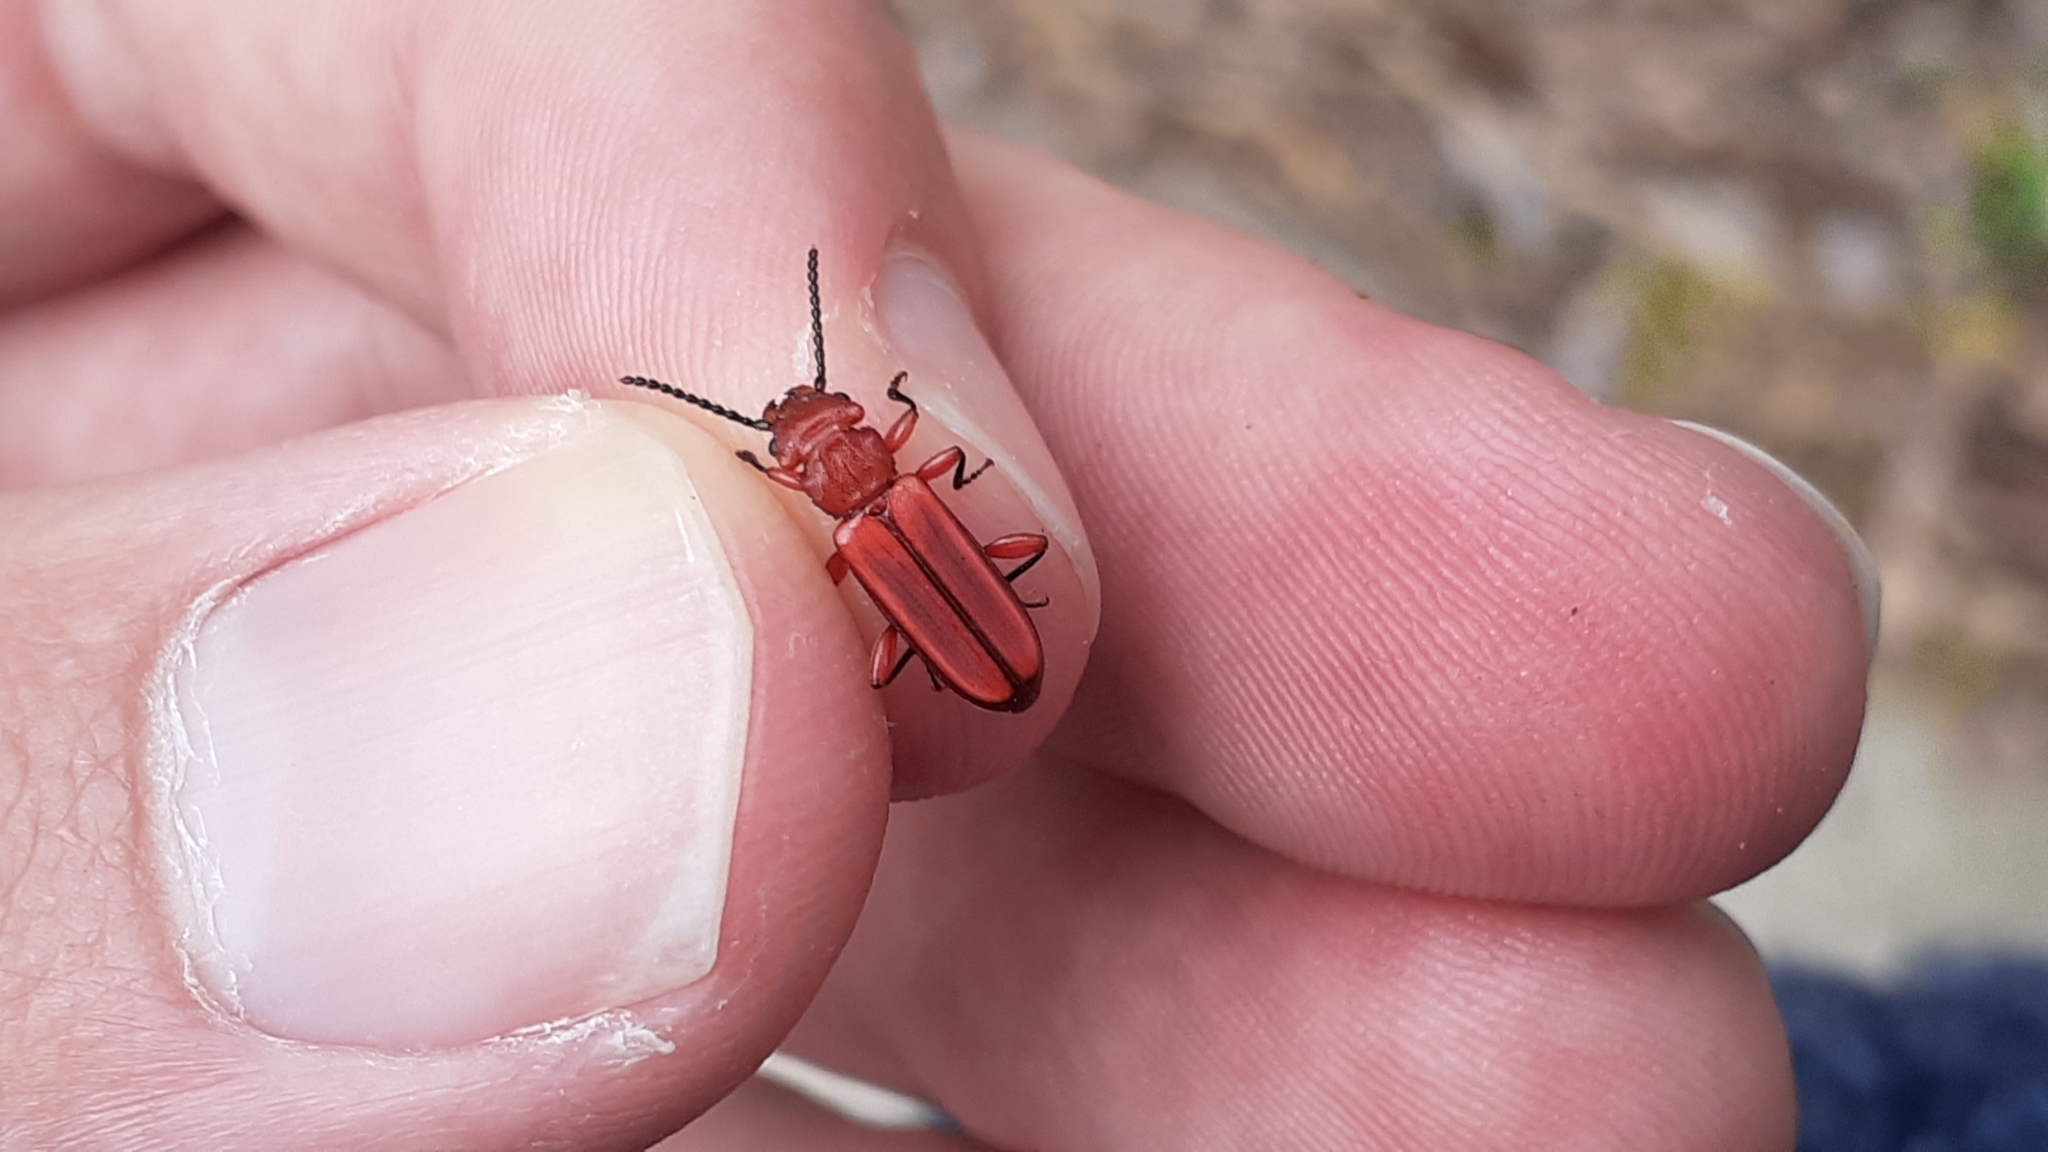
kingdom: Animalia
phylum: Arthropoda
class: Insecta
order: Coleoptera
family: Cucujidae
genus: Cucujus
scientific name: Cucujus clavipes
